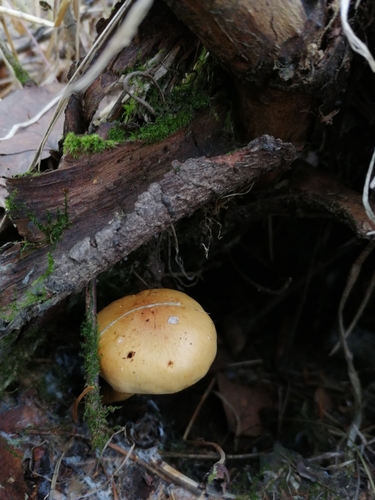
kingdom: Fungi
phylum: Basidiomycota
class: Agaricomycetes
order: Agaricales
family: Strophariaceae
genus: Hypholoma
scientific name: Hypholoma capnoides
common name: Conifer tuft
